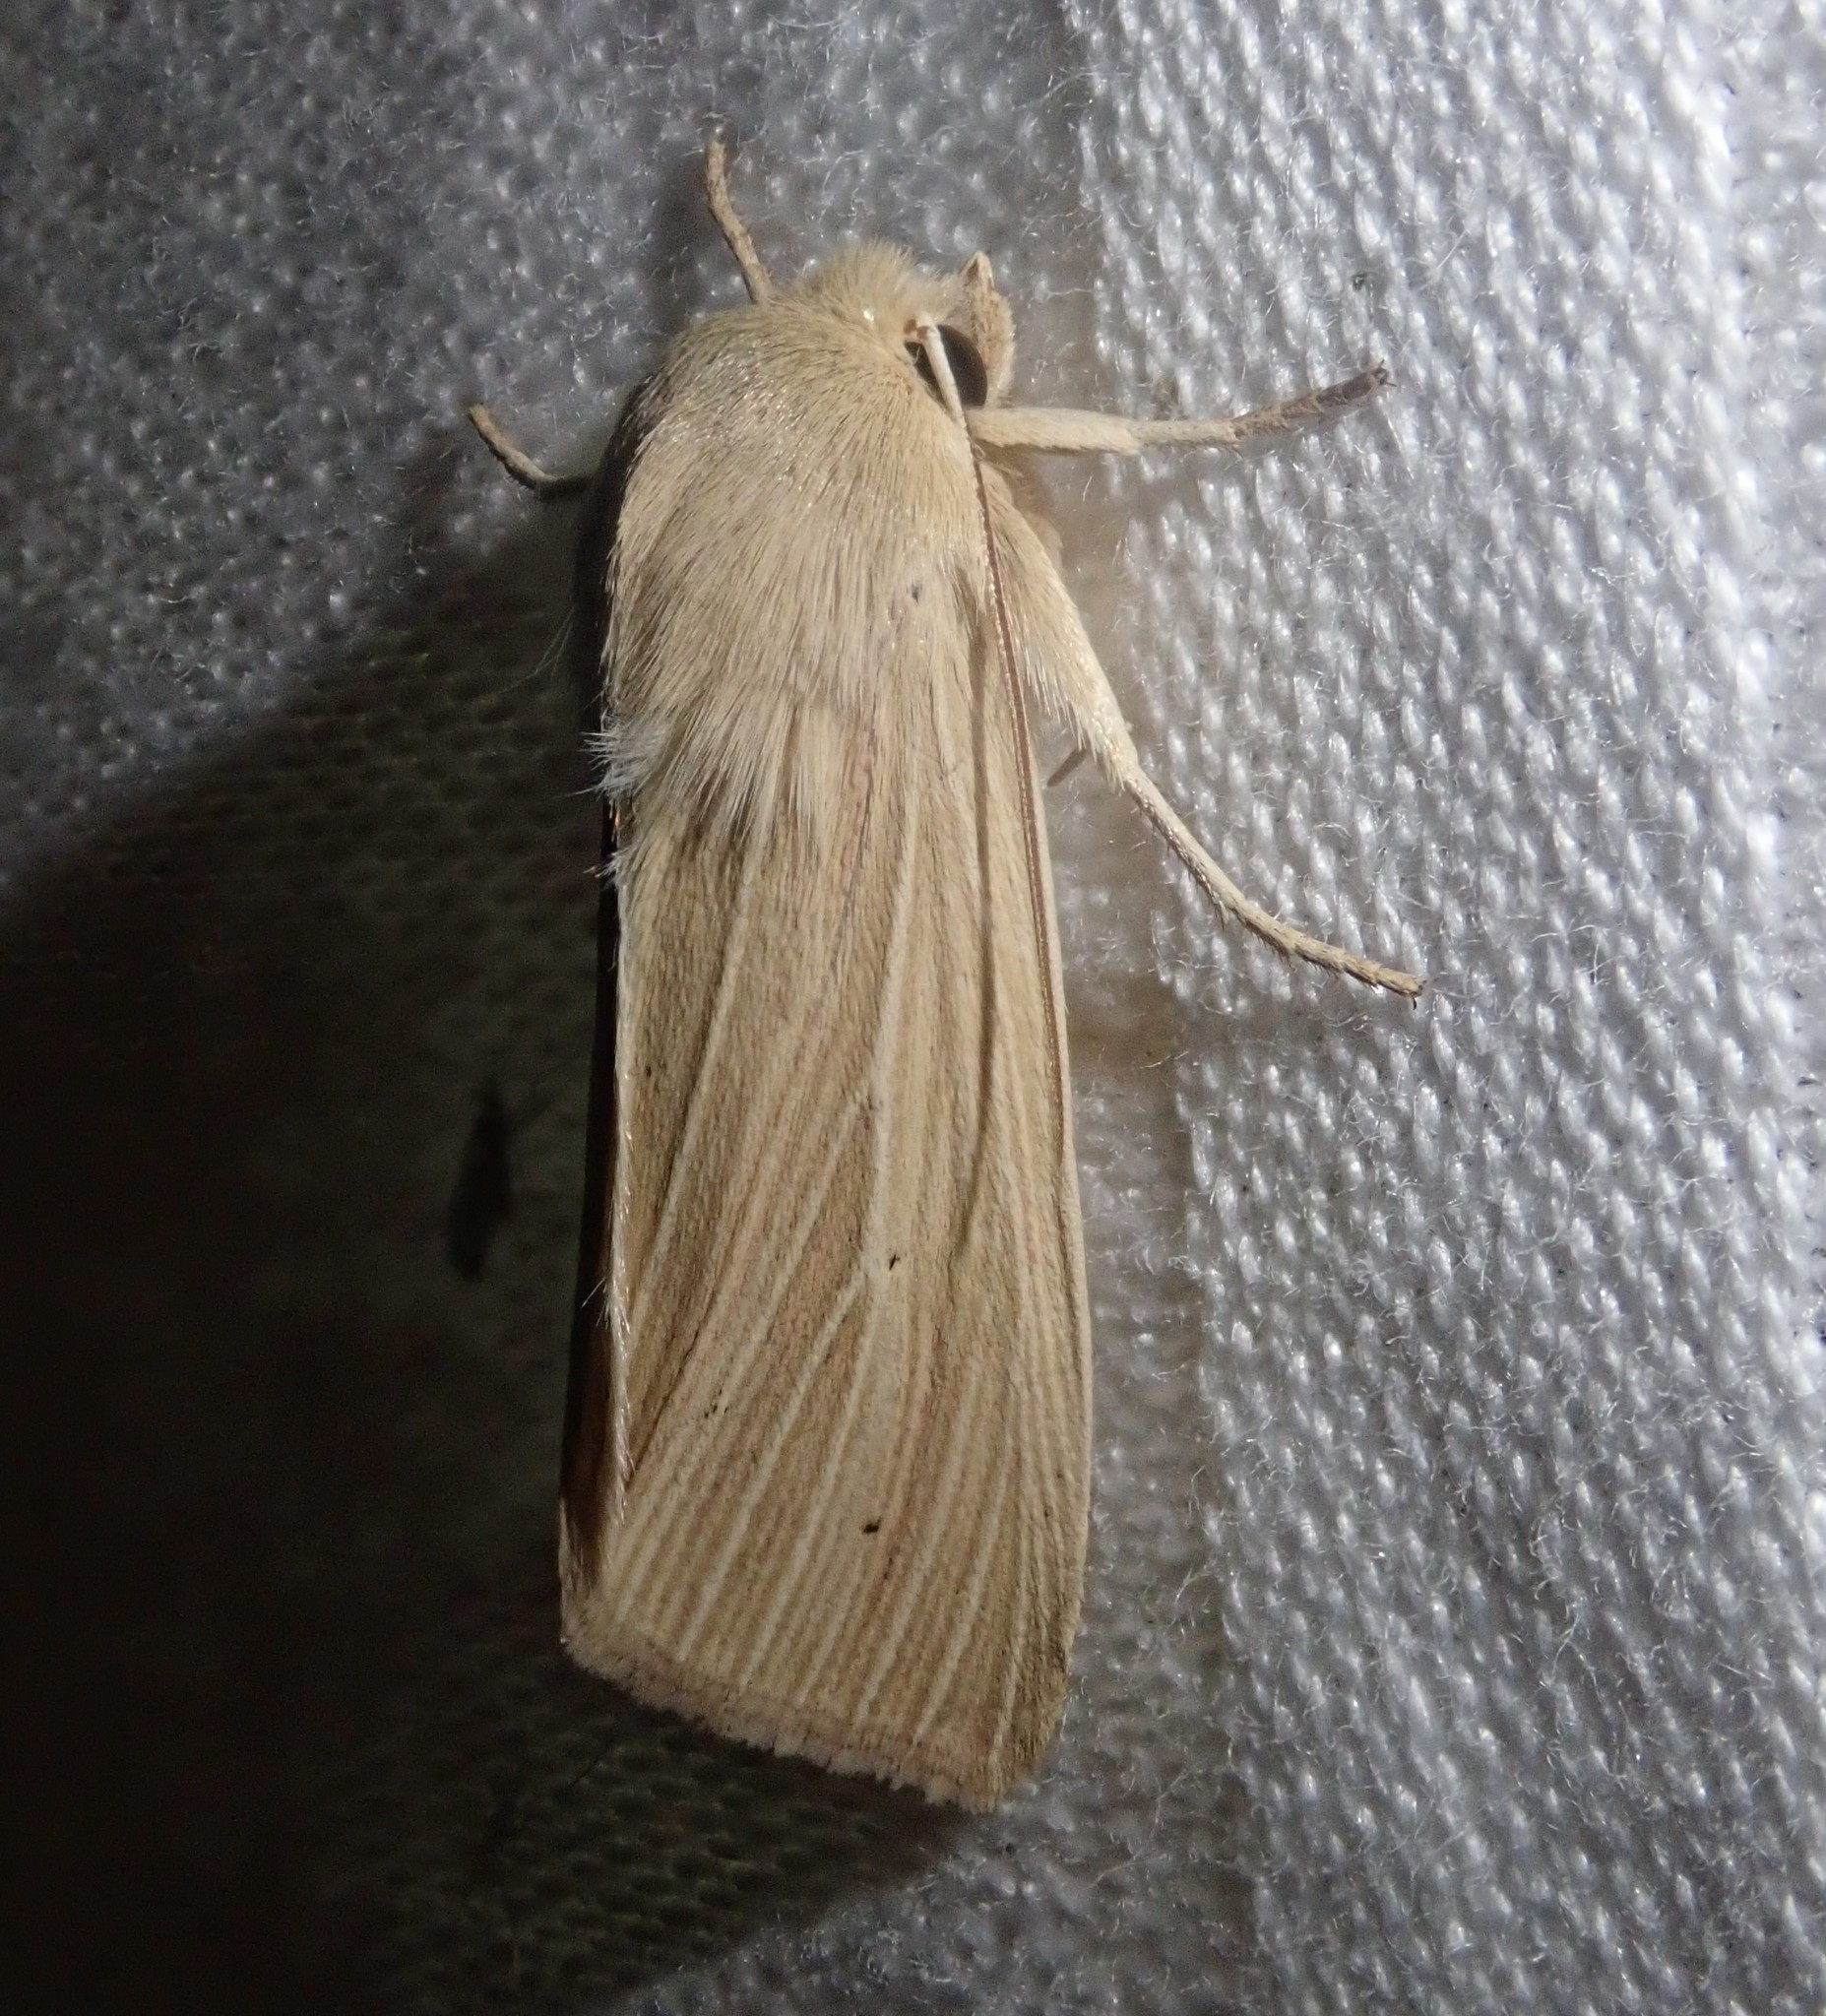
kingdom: Animalia
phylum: Arthropoda
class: Insecta
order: Lepidoptera
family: Noctuidae
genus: Mythimna
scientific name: Mythimna pallens
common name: Common wainscot
